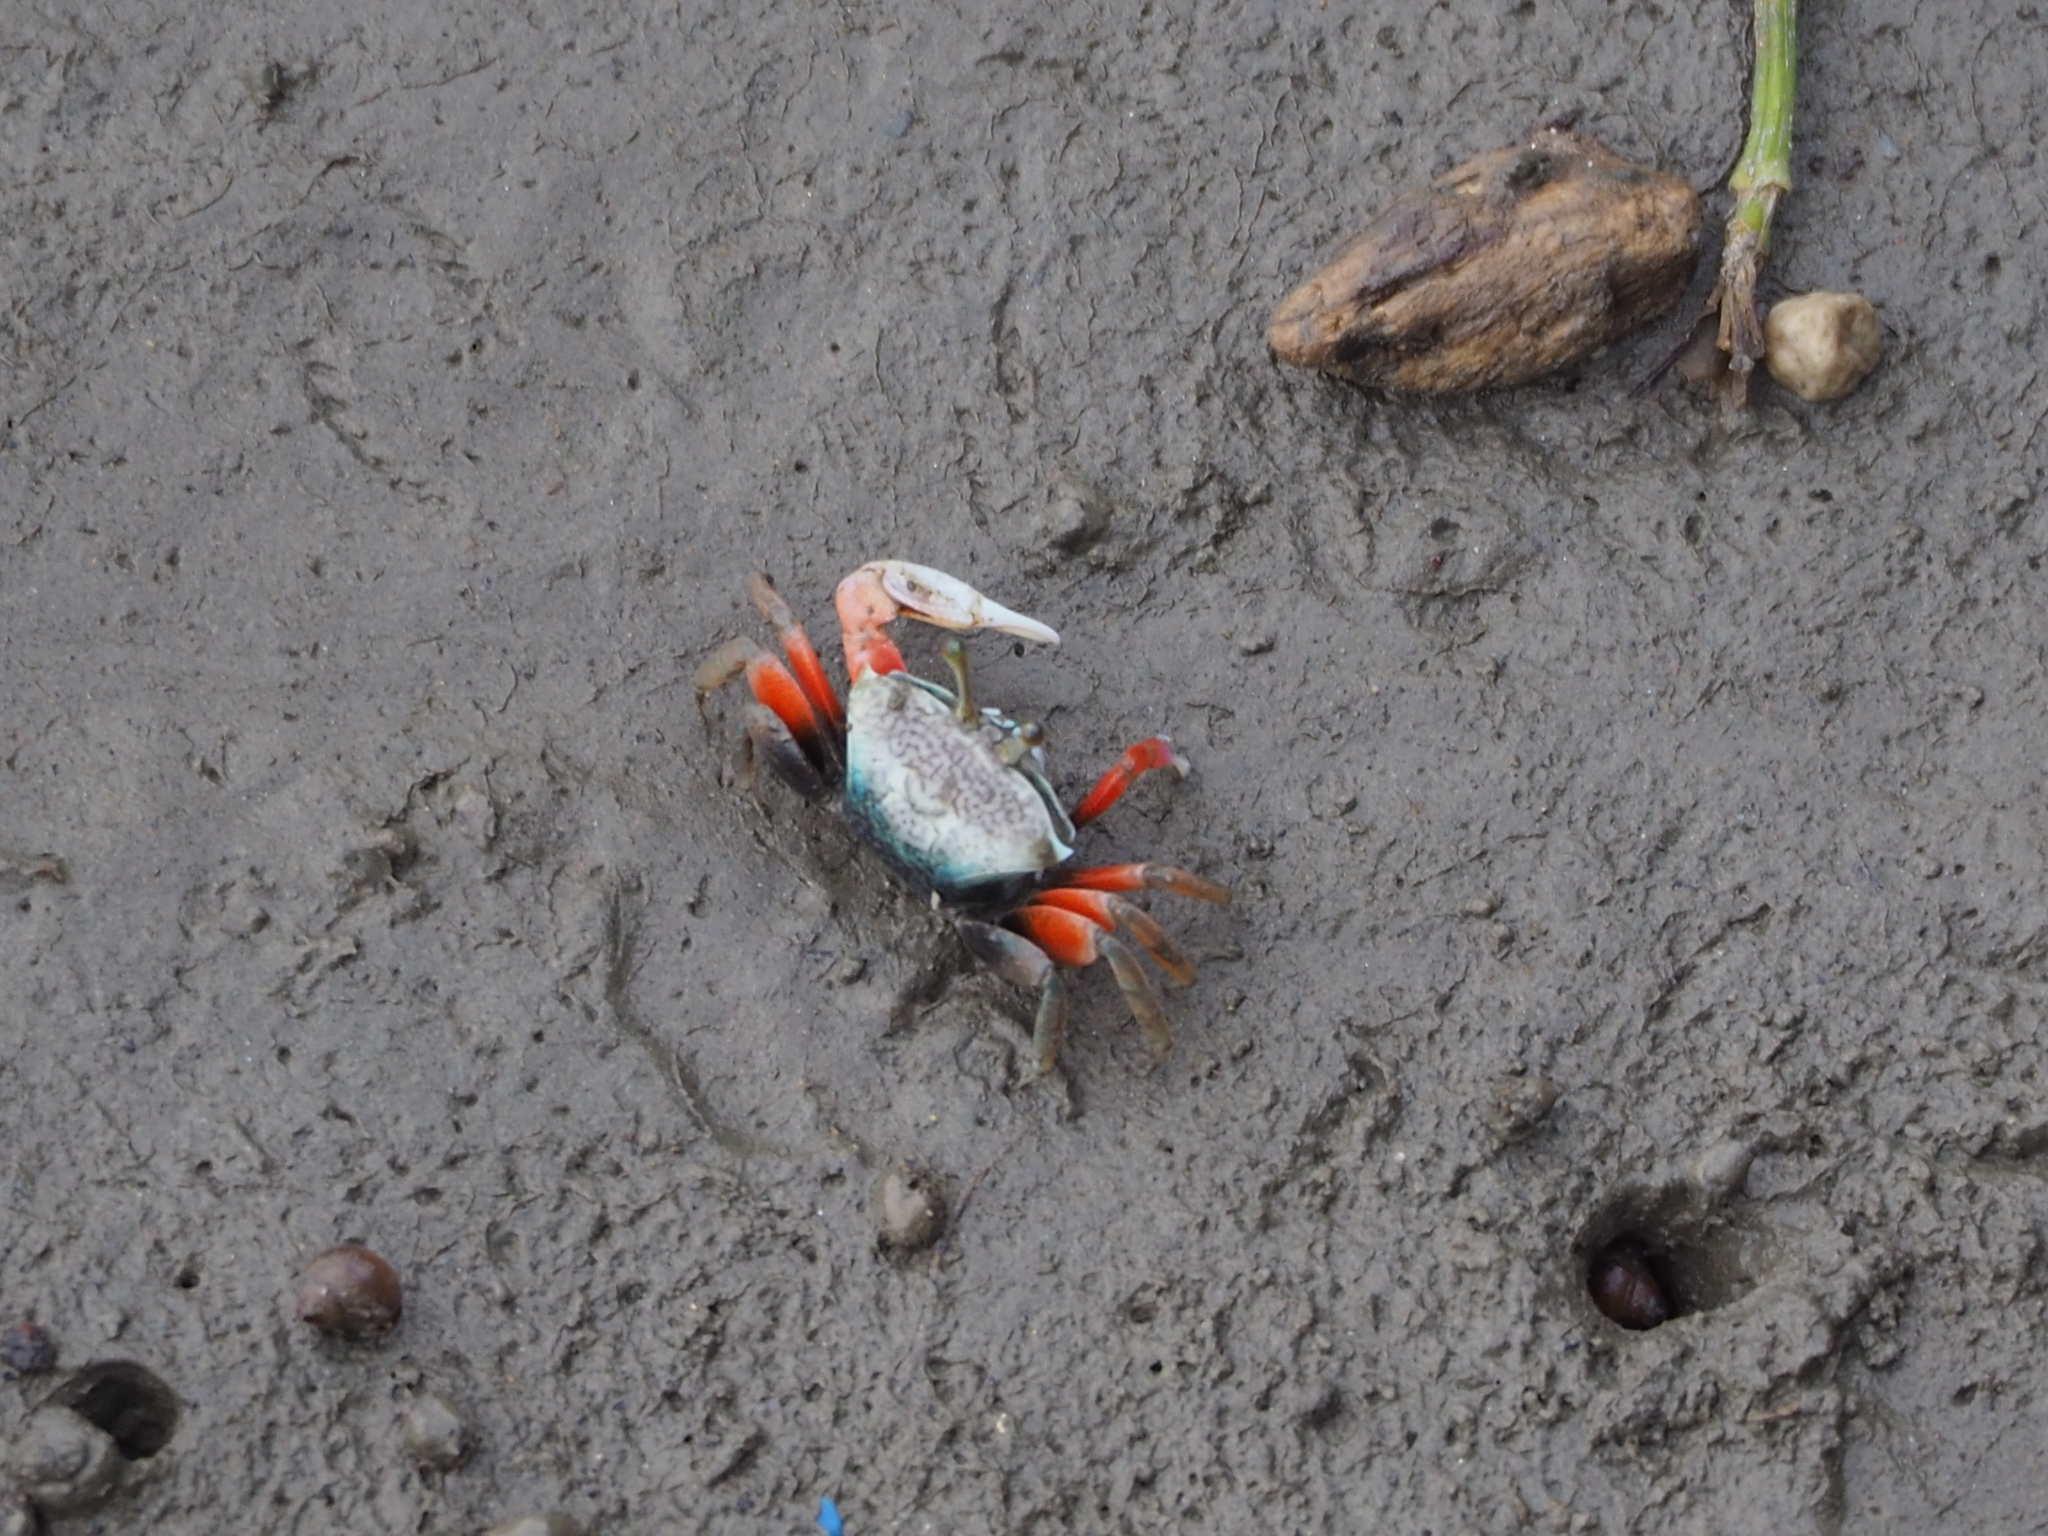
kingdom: Animalia
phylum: Arthropoda
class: Malacostraca
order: Decapoda
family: Ocypodidae
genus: Tubuca
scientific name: Tubuca arcuata
